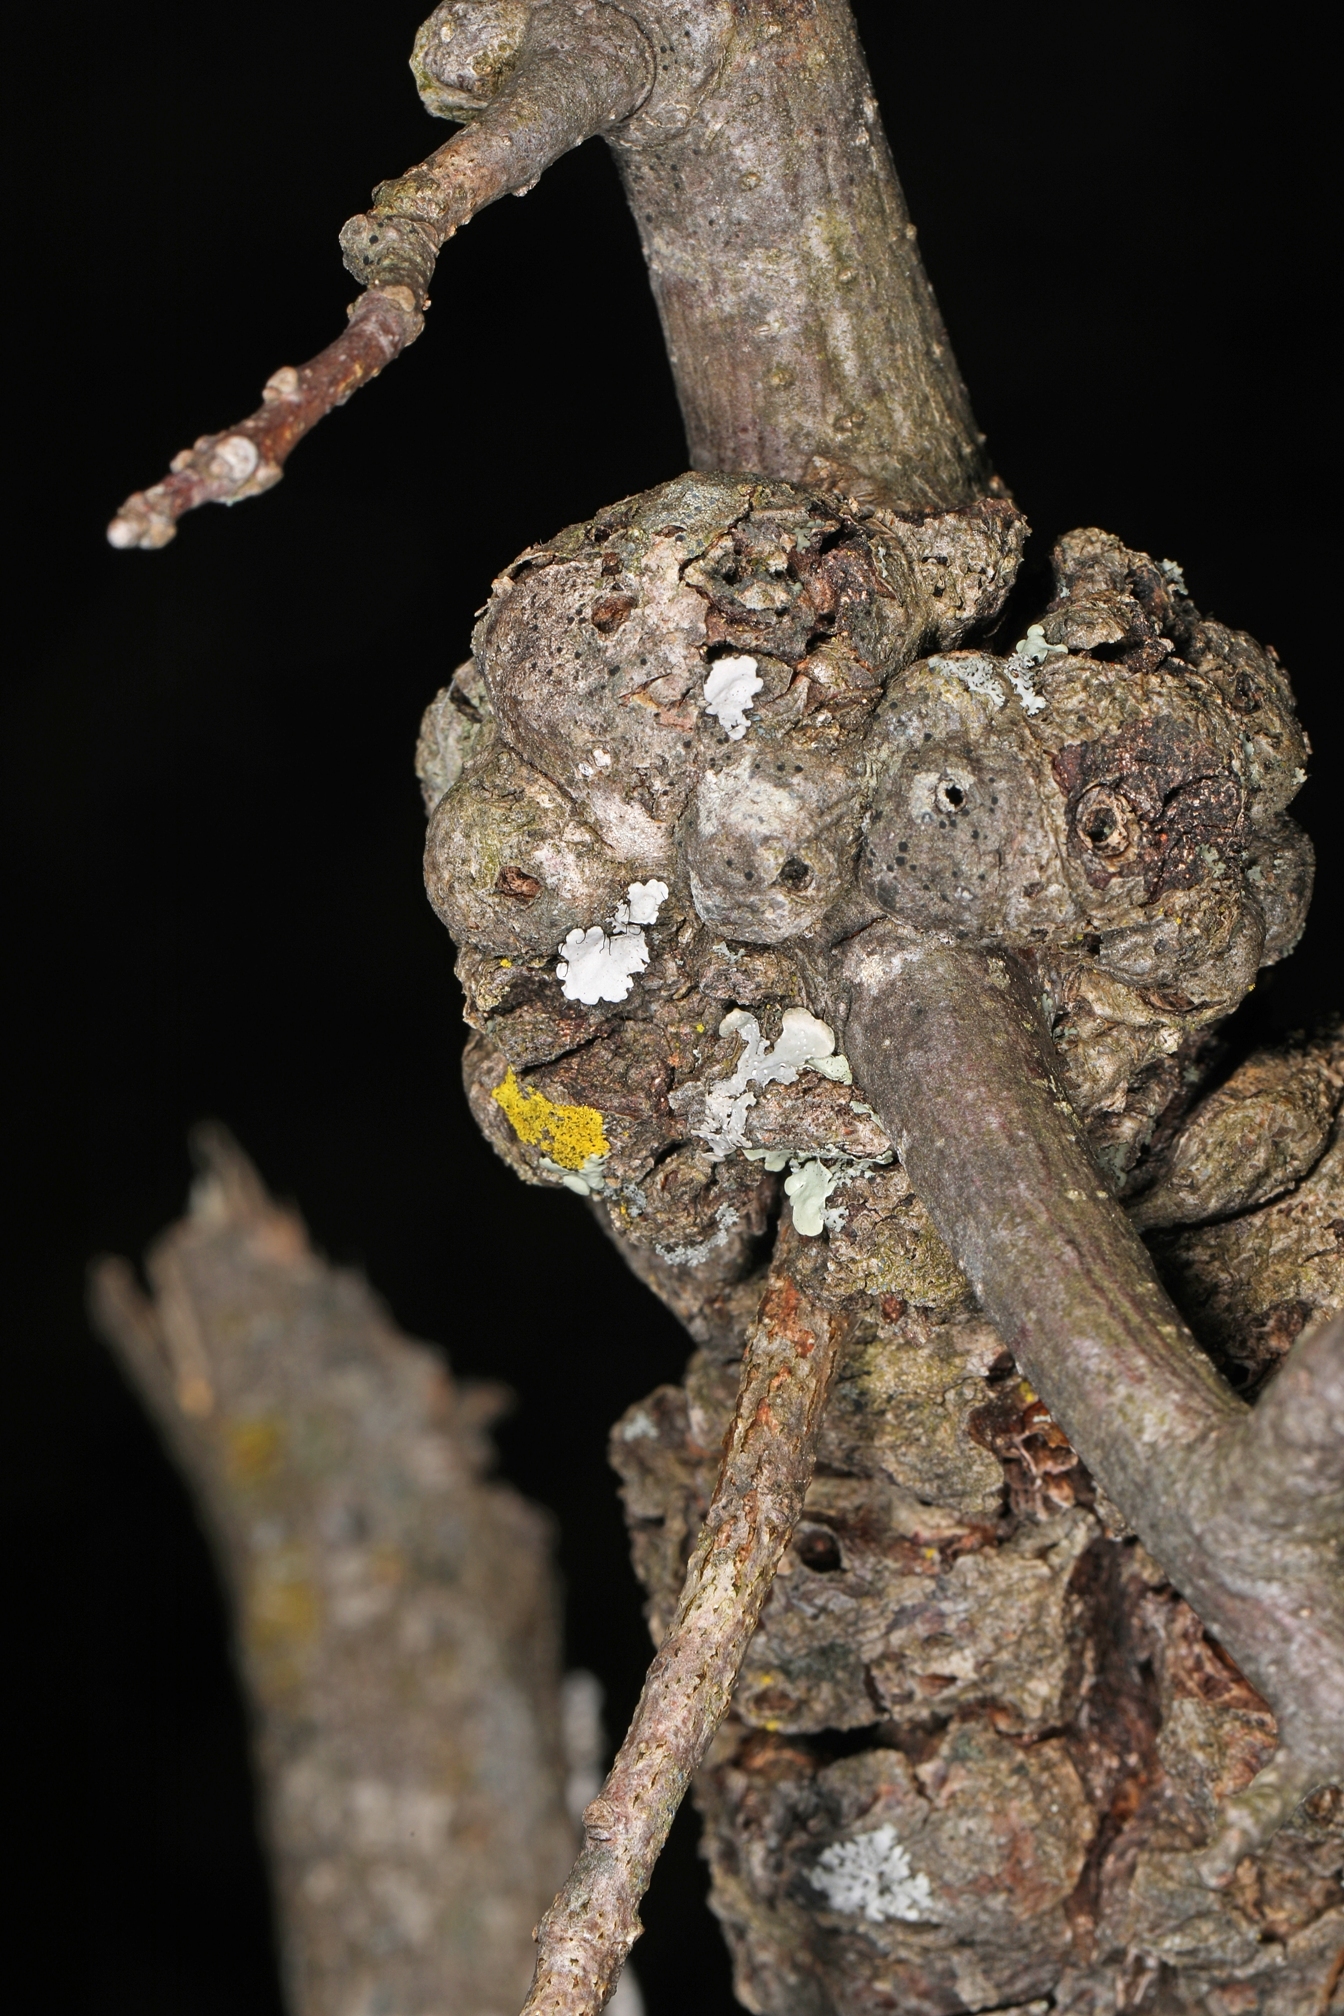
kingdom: Animalia
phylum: Arthropoda
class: Insecta
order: Hymenoptera
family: Cynipidae
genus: Callirhytis
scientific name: Callirhytis
